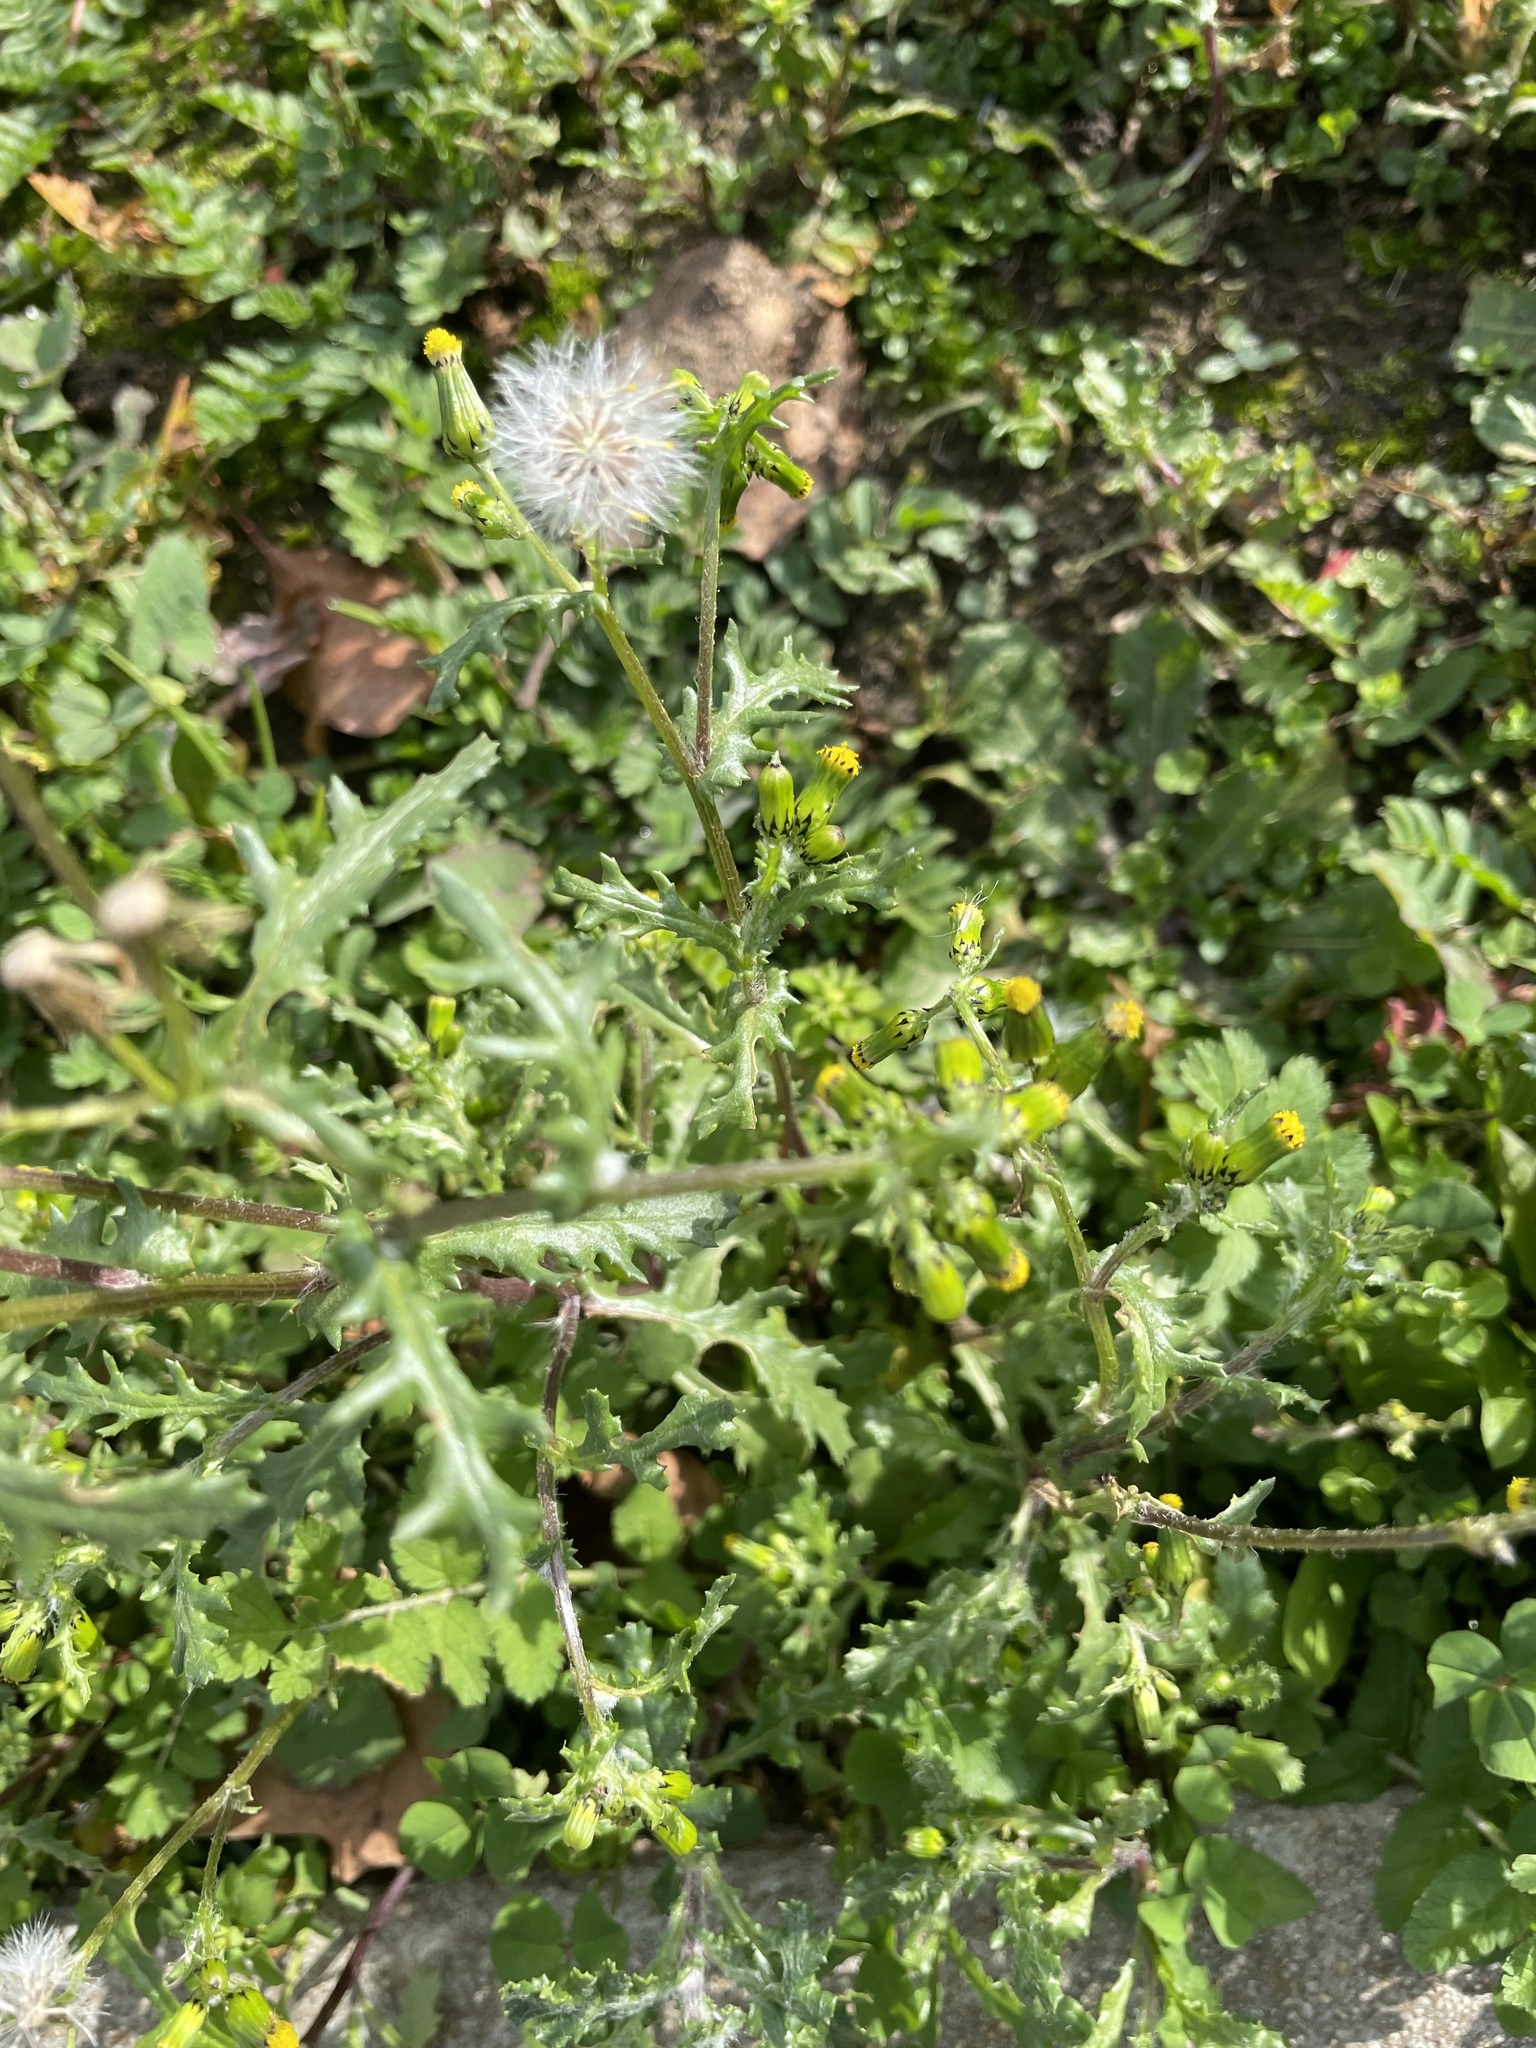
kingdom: Plantae
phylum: Tracheophyta
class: Magnoliopsida
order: Asterales
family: Asteraceae
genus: Senecio
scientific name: Senecio vulgaris
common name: Old-man-in-the-spring
